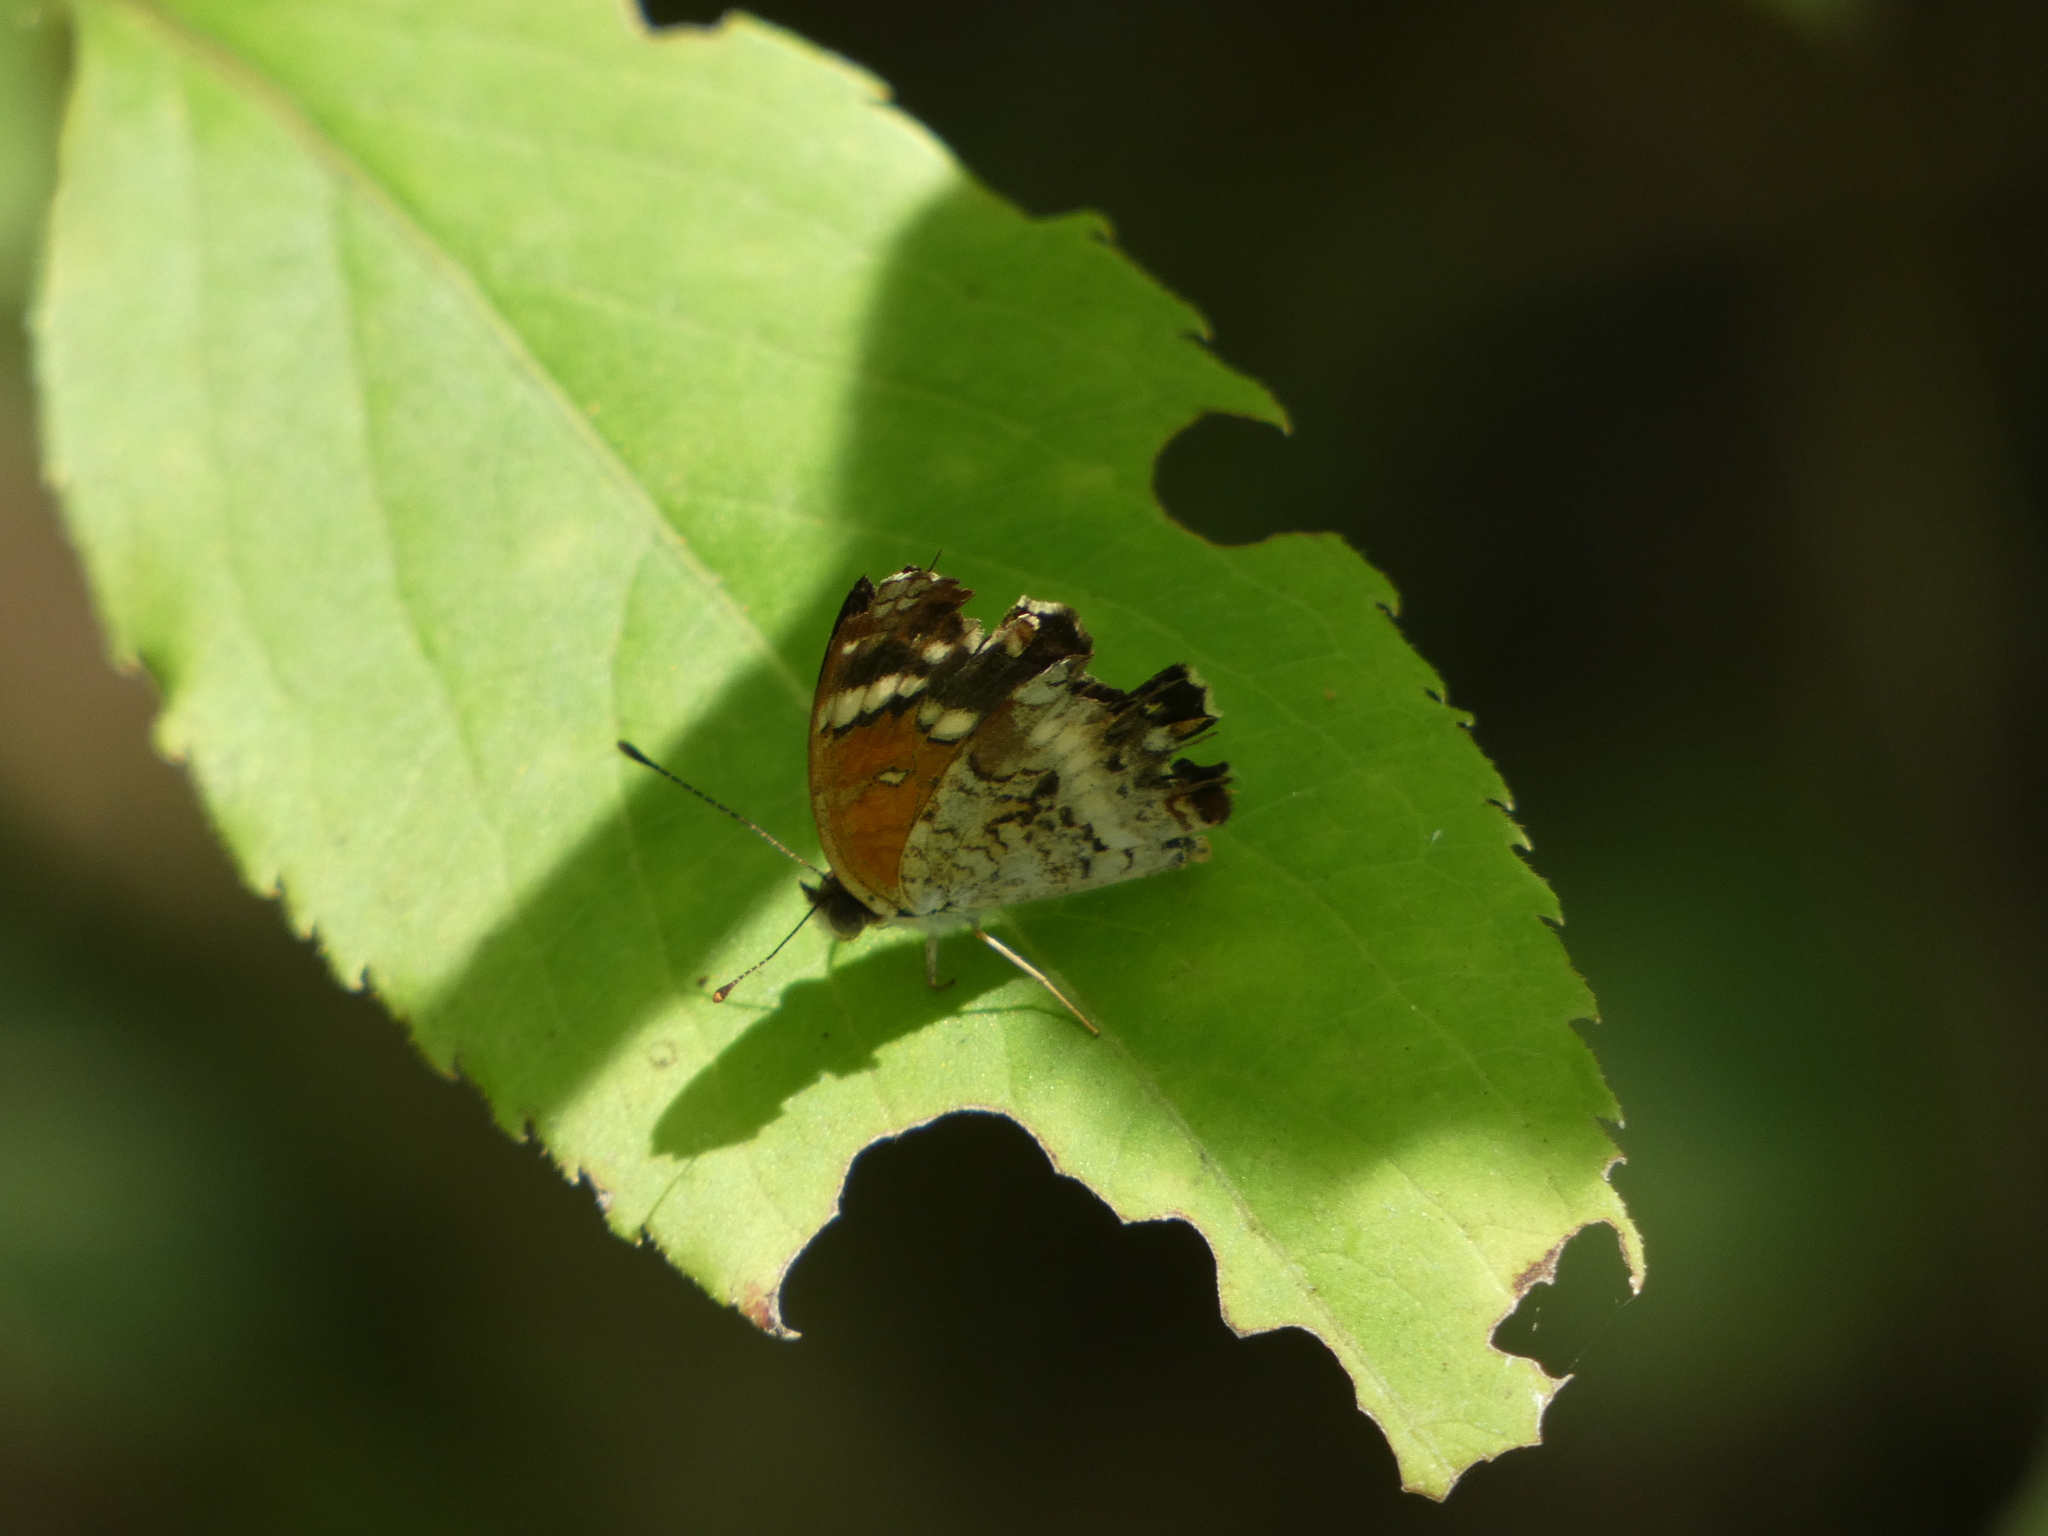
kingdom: Animalia
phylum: Arthropoda
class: Insecta
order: Lepidoptera
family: Nymphalidae
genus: Anthanassa
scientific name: Anthanassa taxana
